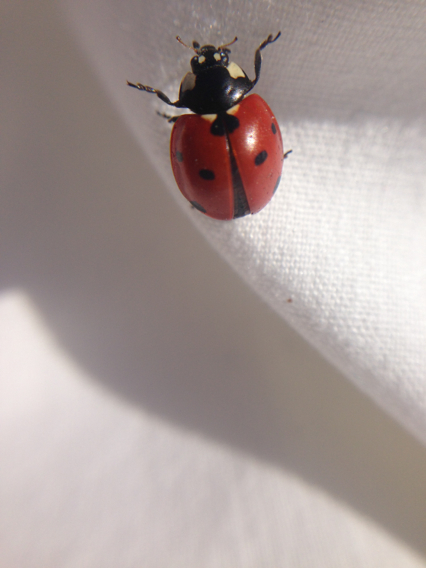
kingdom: Animalia
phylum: Arthropoda
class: Insecta
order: Coleoptera
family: Coccinellidae
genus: Coccinella
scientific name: Coccinella septempunctata
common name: Sevenspotted lady beetle
